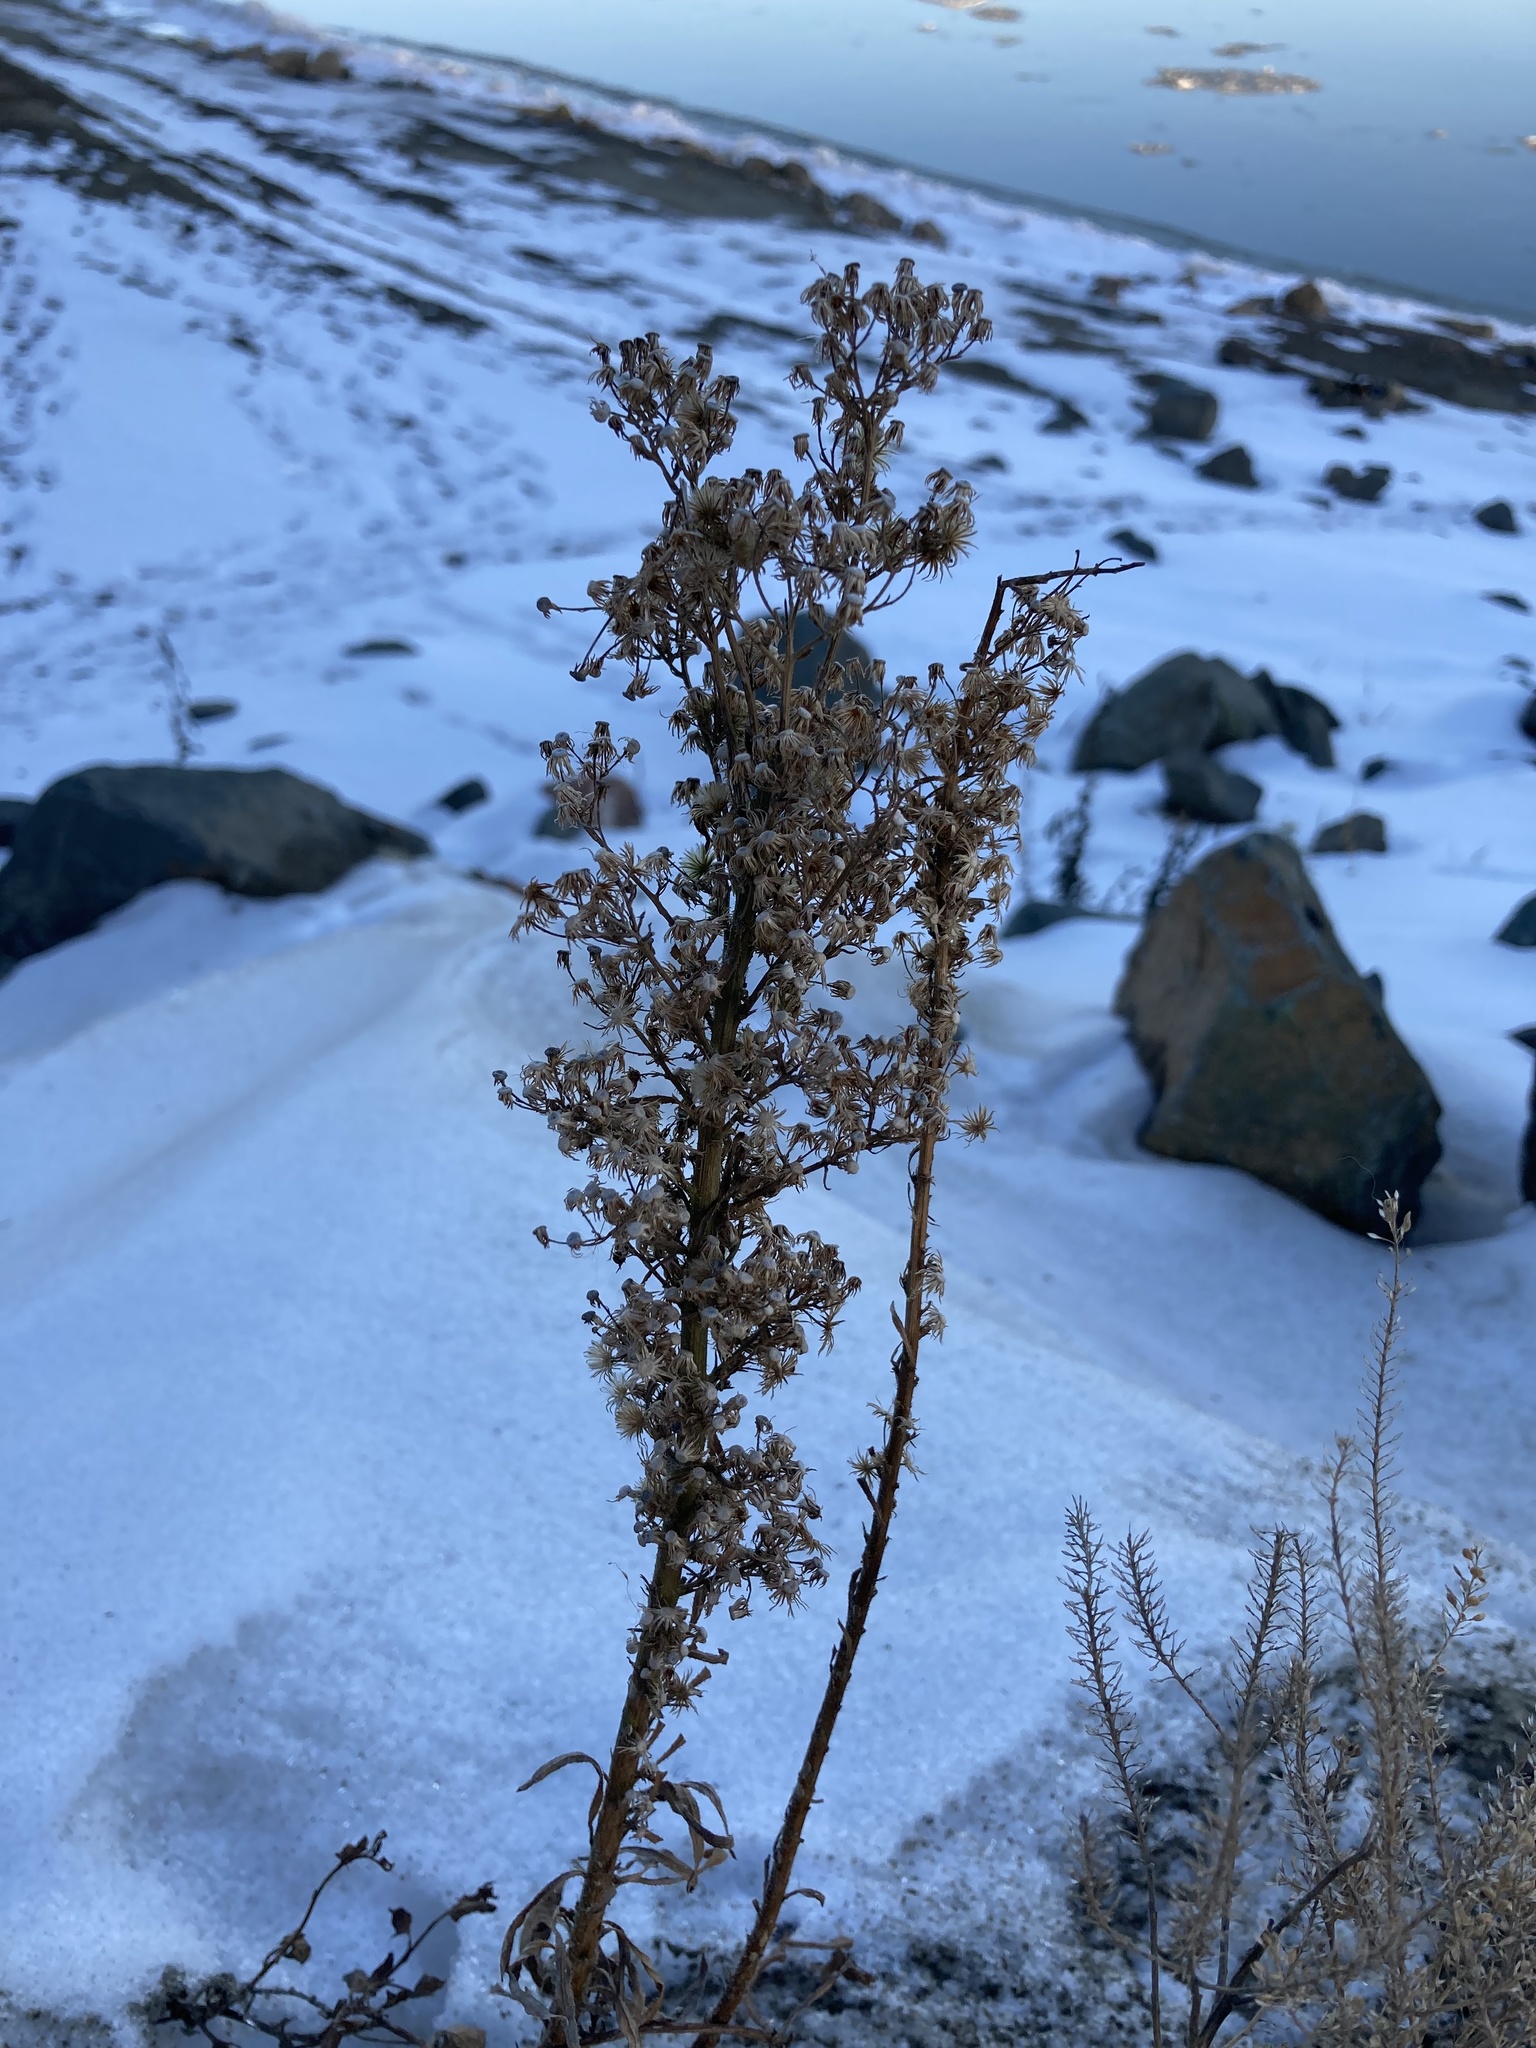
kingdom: Plantae
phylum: Tracheophyta
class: Magnoliopsida
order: Asterales
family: Asteraceae
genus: Erigeron
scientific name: Erigeron canadensis
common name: Canadian fleabane
